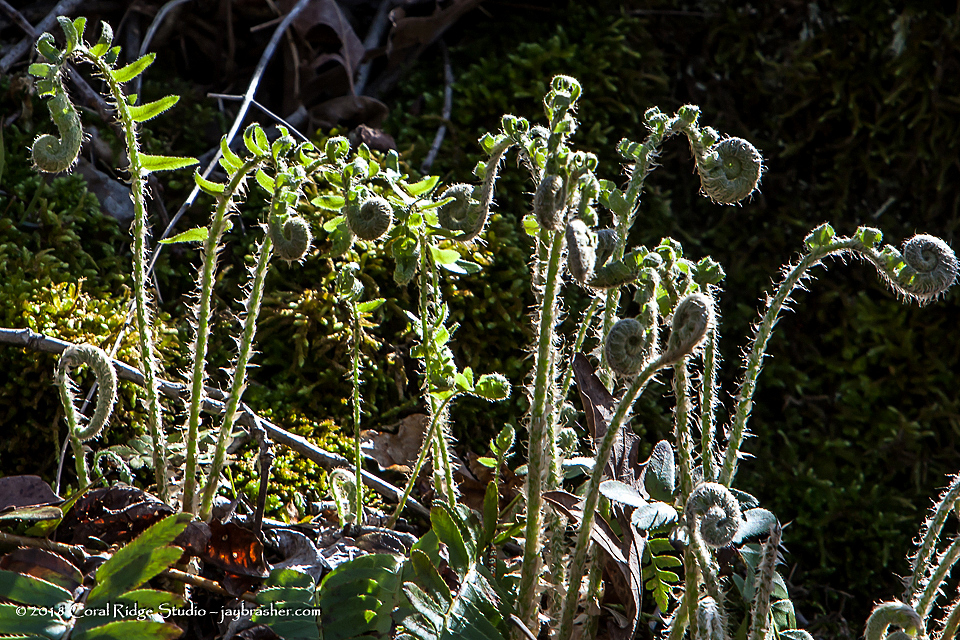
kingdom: Plantae
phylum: Tracheophyta
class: Polypodiopsida
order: Polypodiales
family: Dryopteridaceae
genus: Polystichum
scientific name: Polystichum acrostichoides
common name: Christmas fern
